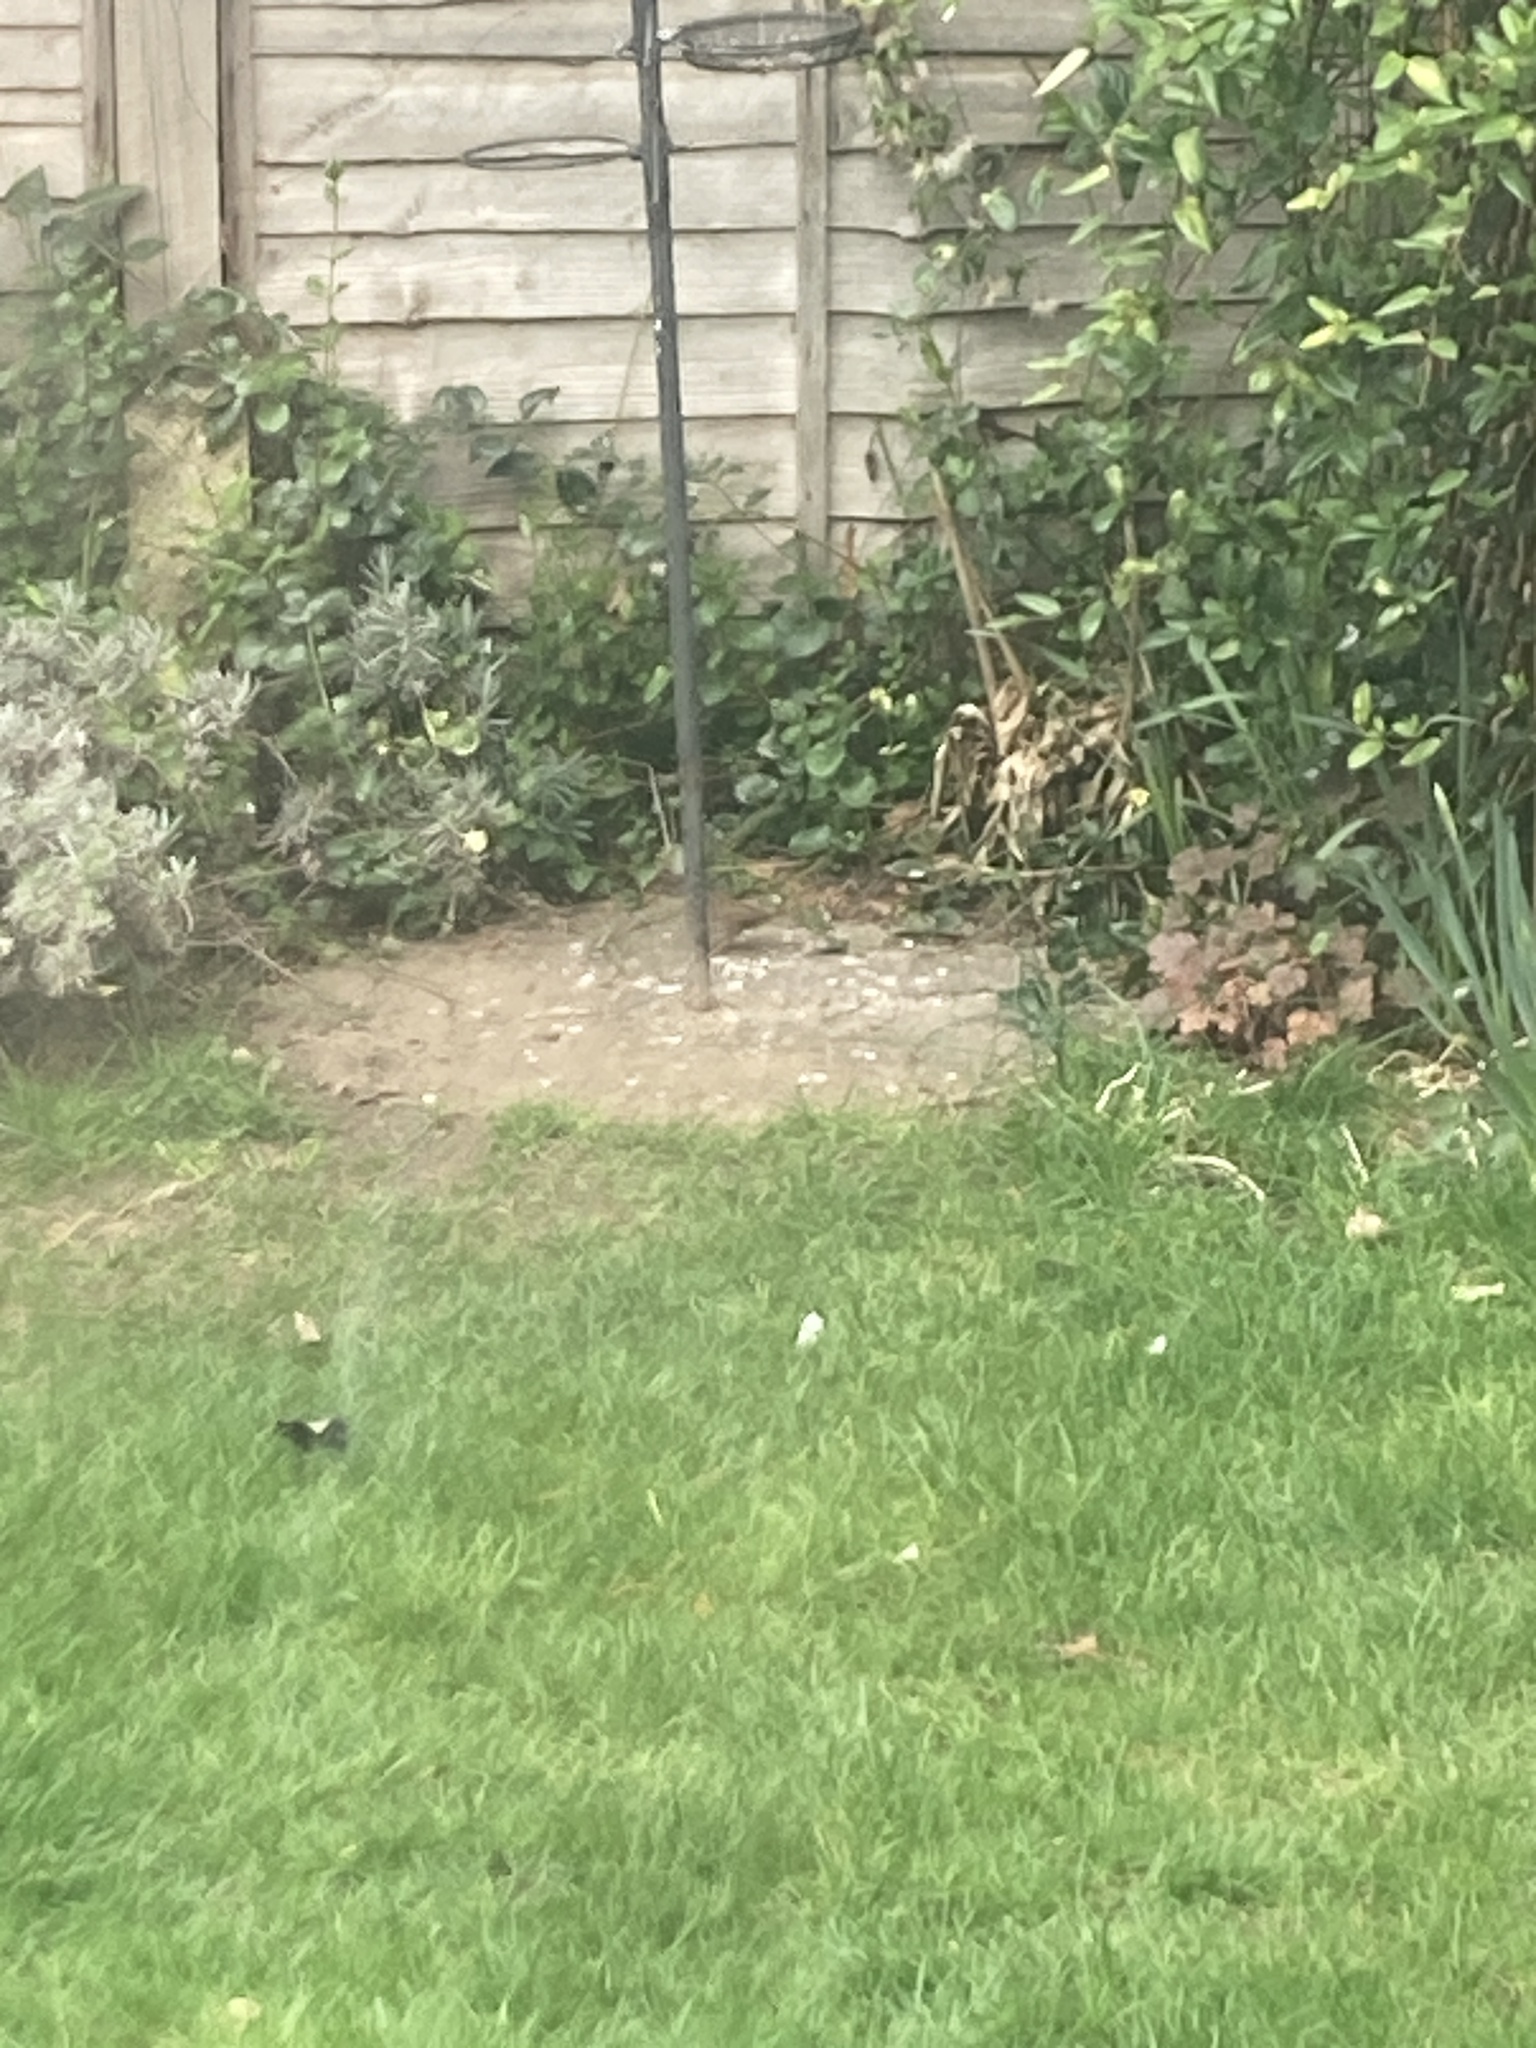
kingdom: Animalia
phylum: Chordata
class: Aves
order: Passeriformes
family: Prunellidae
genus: Prunella
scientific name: Prunella modularis
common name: Dunnock
